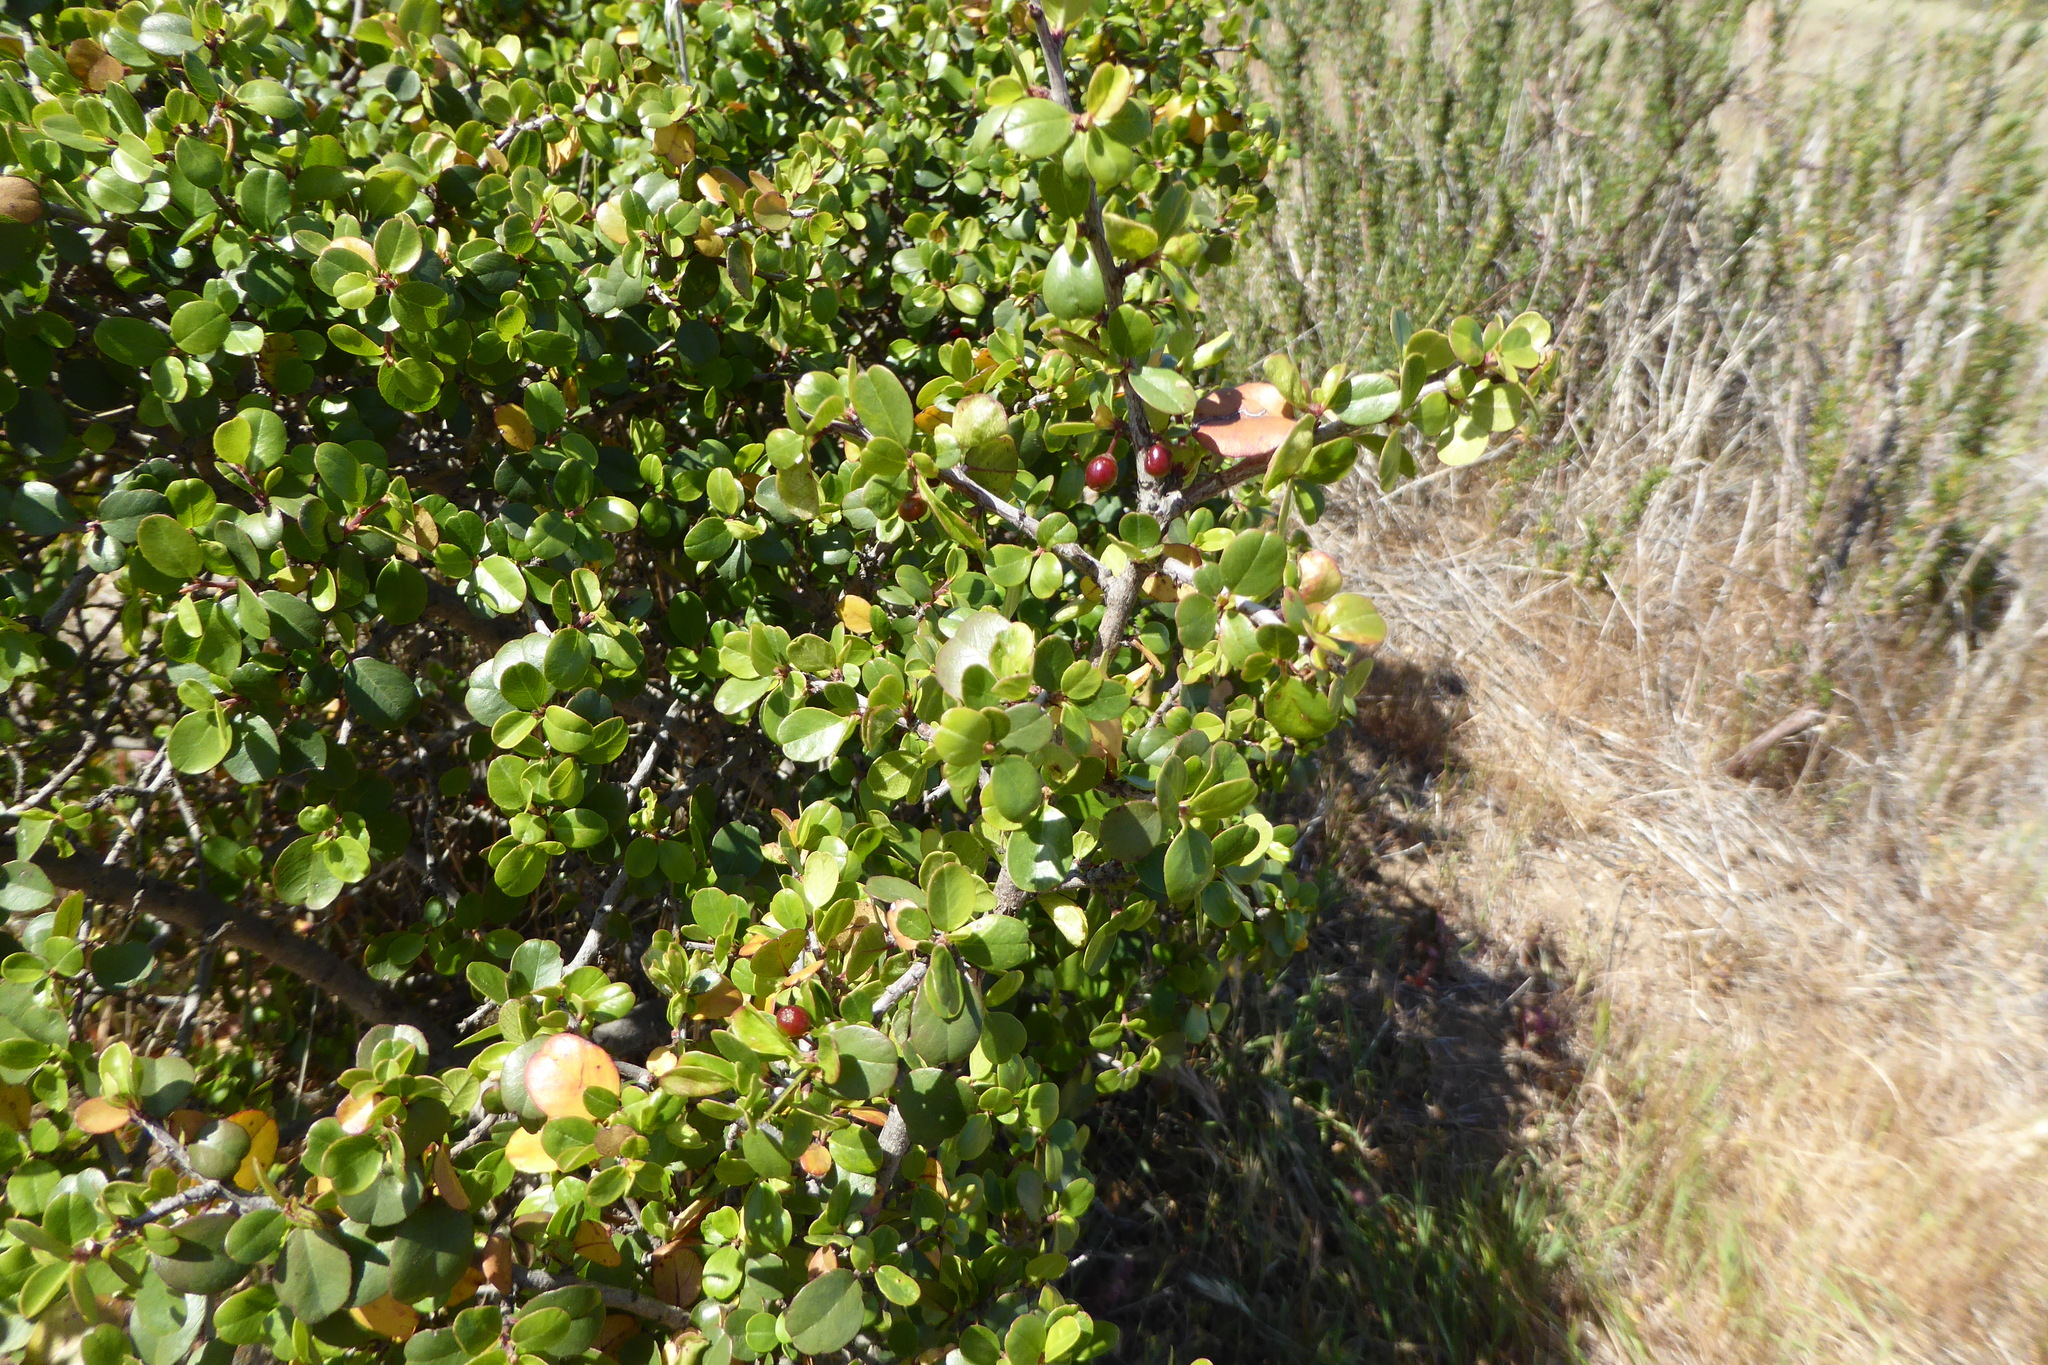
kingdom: Plantae
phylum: Tracheophyta
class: Magnoliopsida
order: Rosales
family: Rhamnaceae
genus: Endotropis
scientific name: Endotropis crocea
